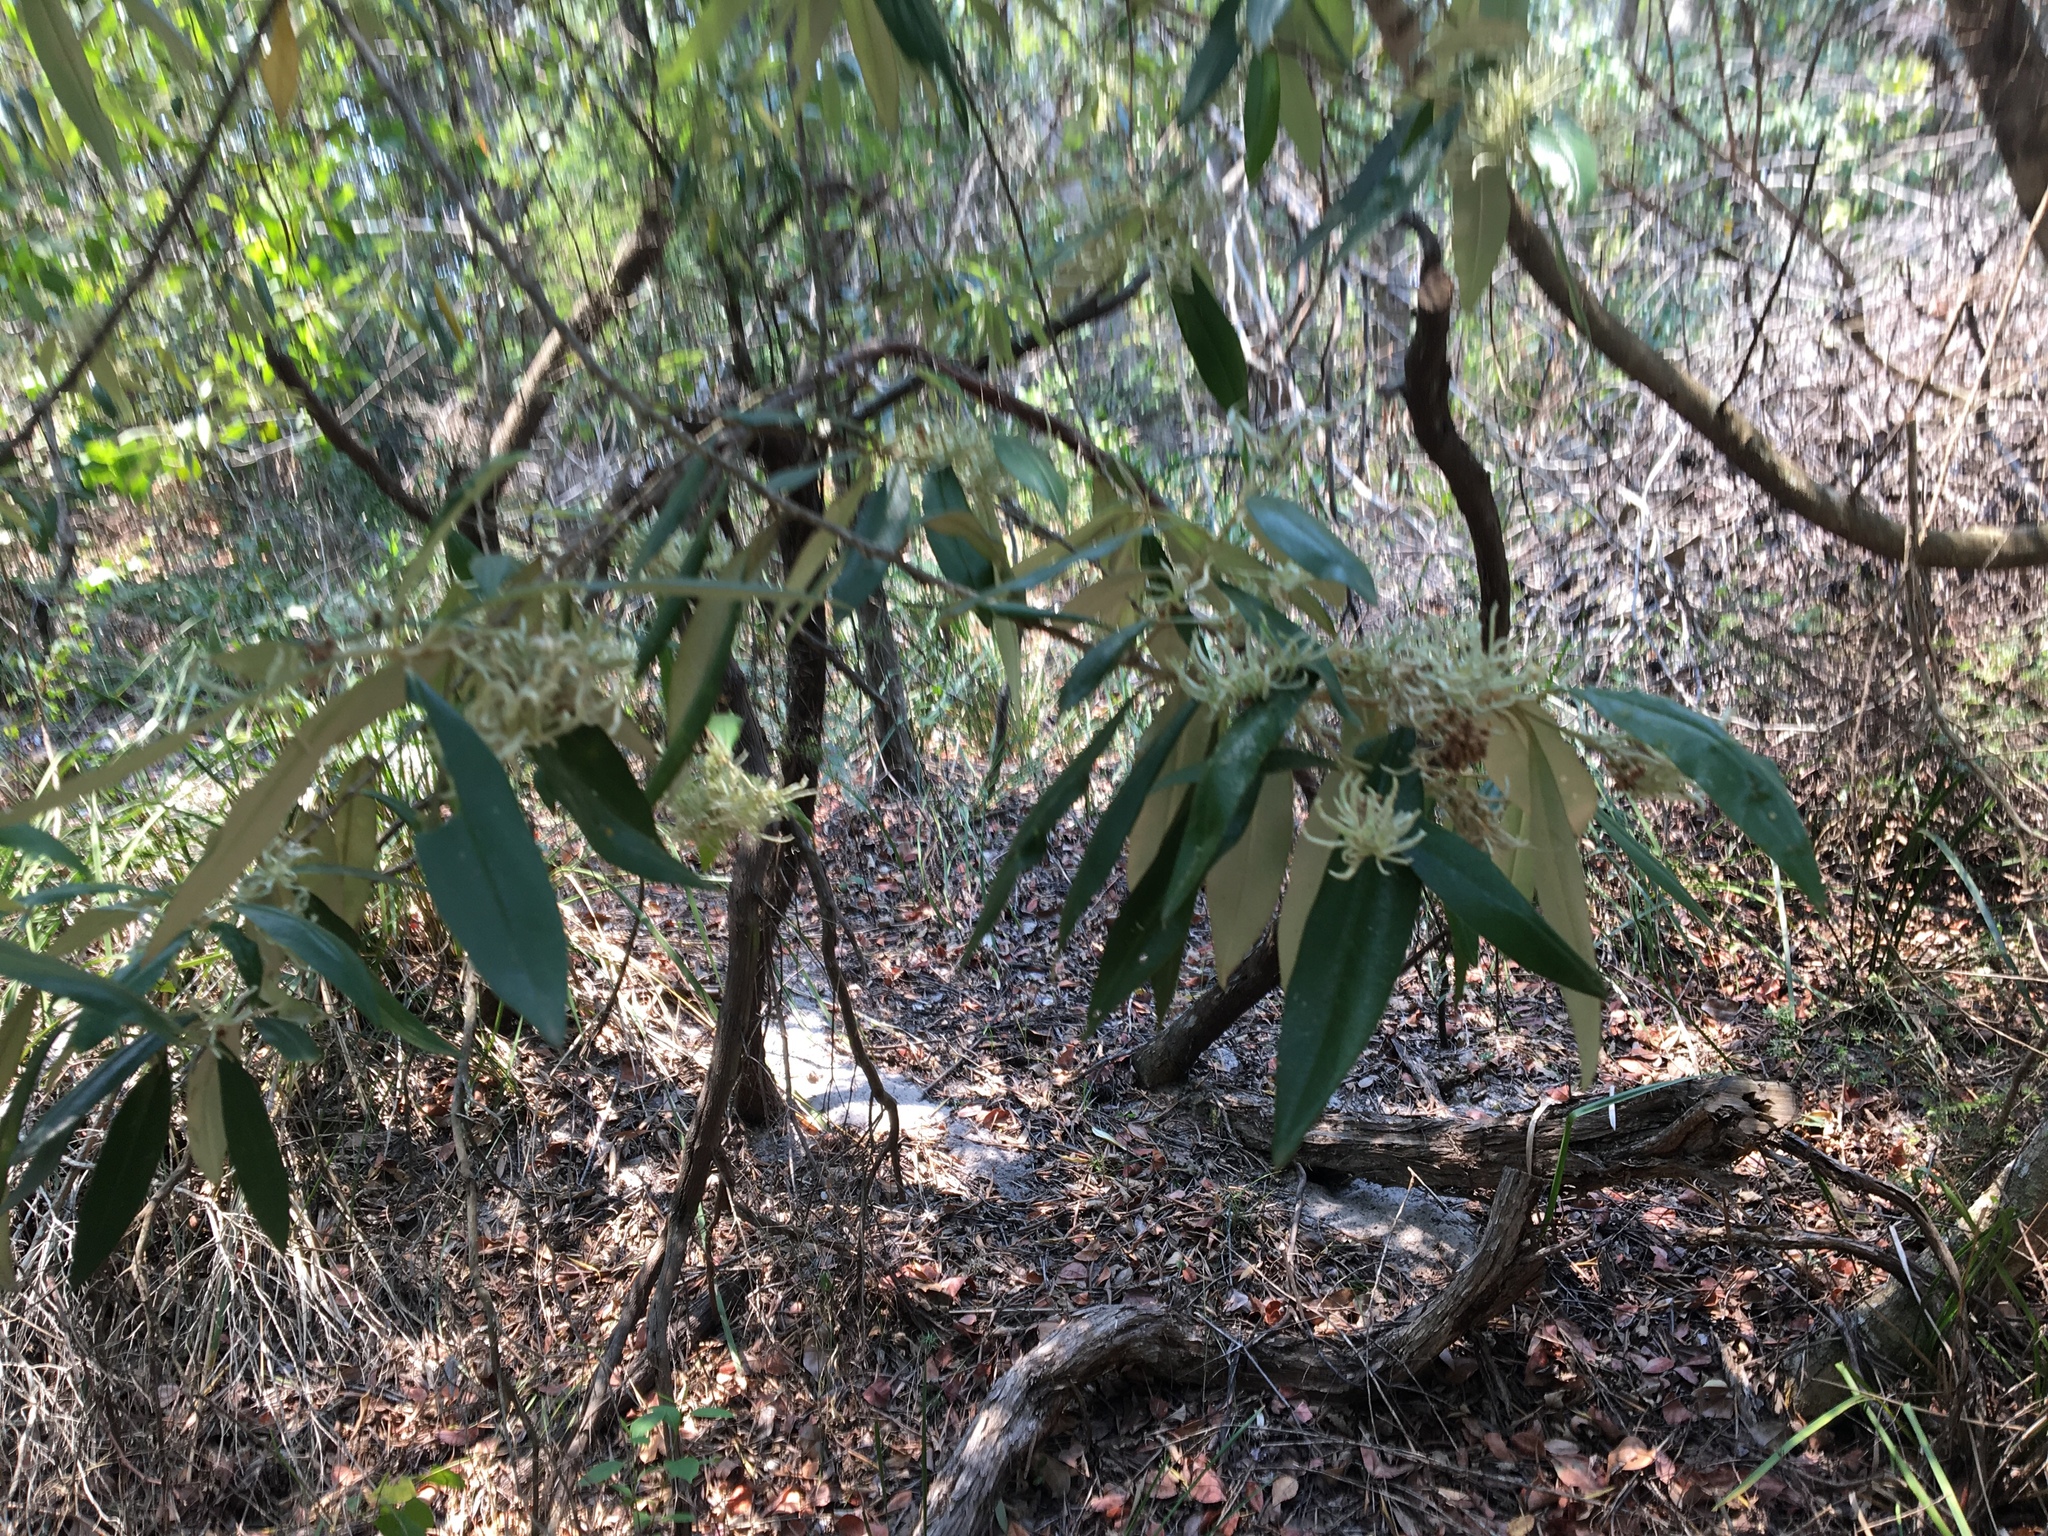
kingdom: Plantae
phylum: Tracheophyta
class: Magnoliopsida
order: Sapindales
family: Rutaceae
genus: Nematolepis
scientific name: Nematolepis squamea
